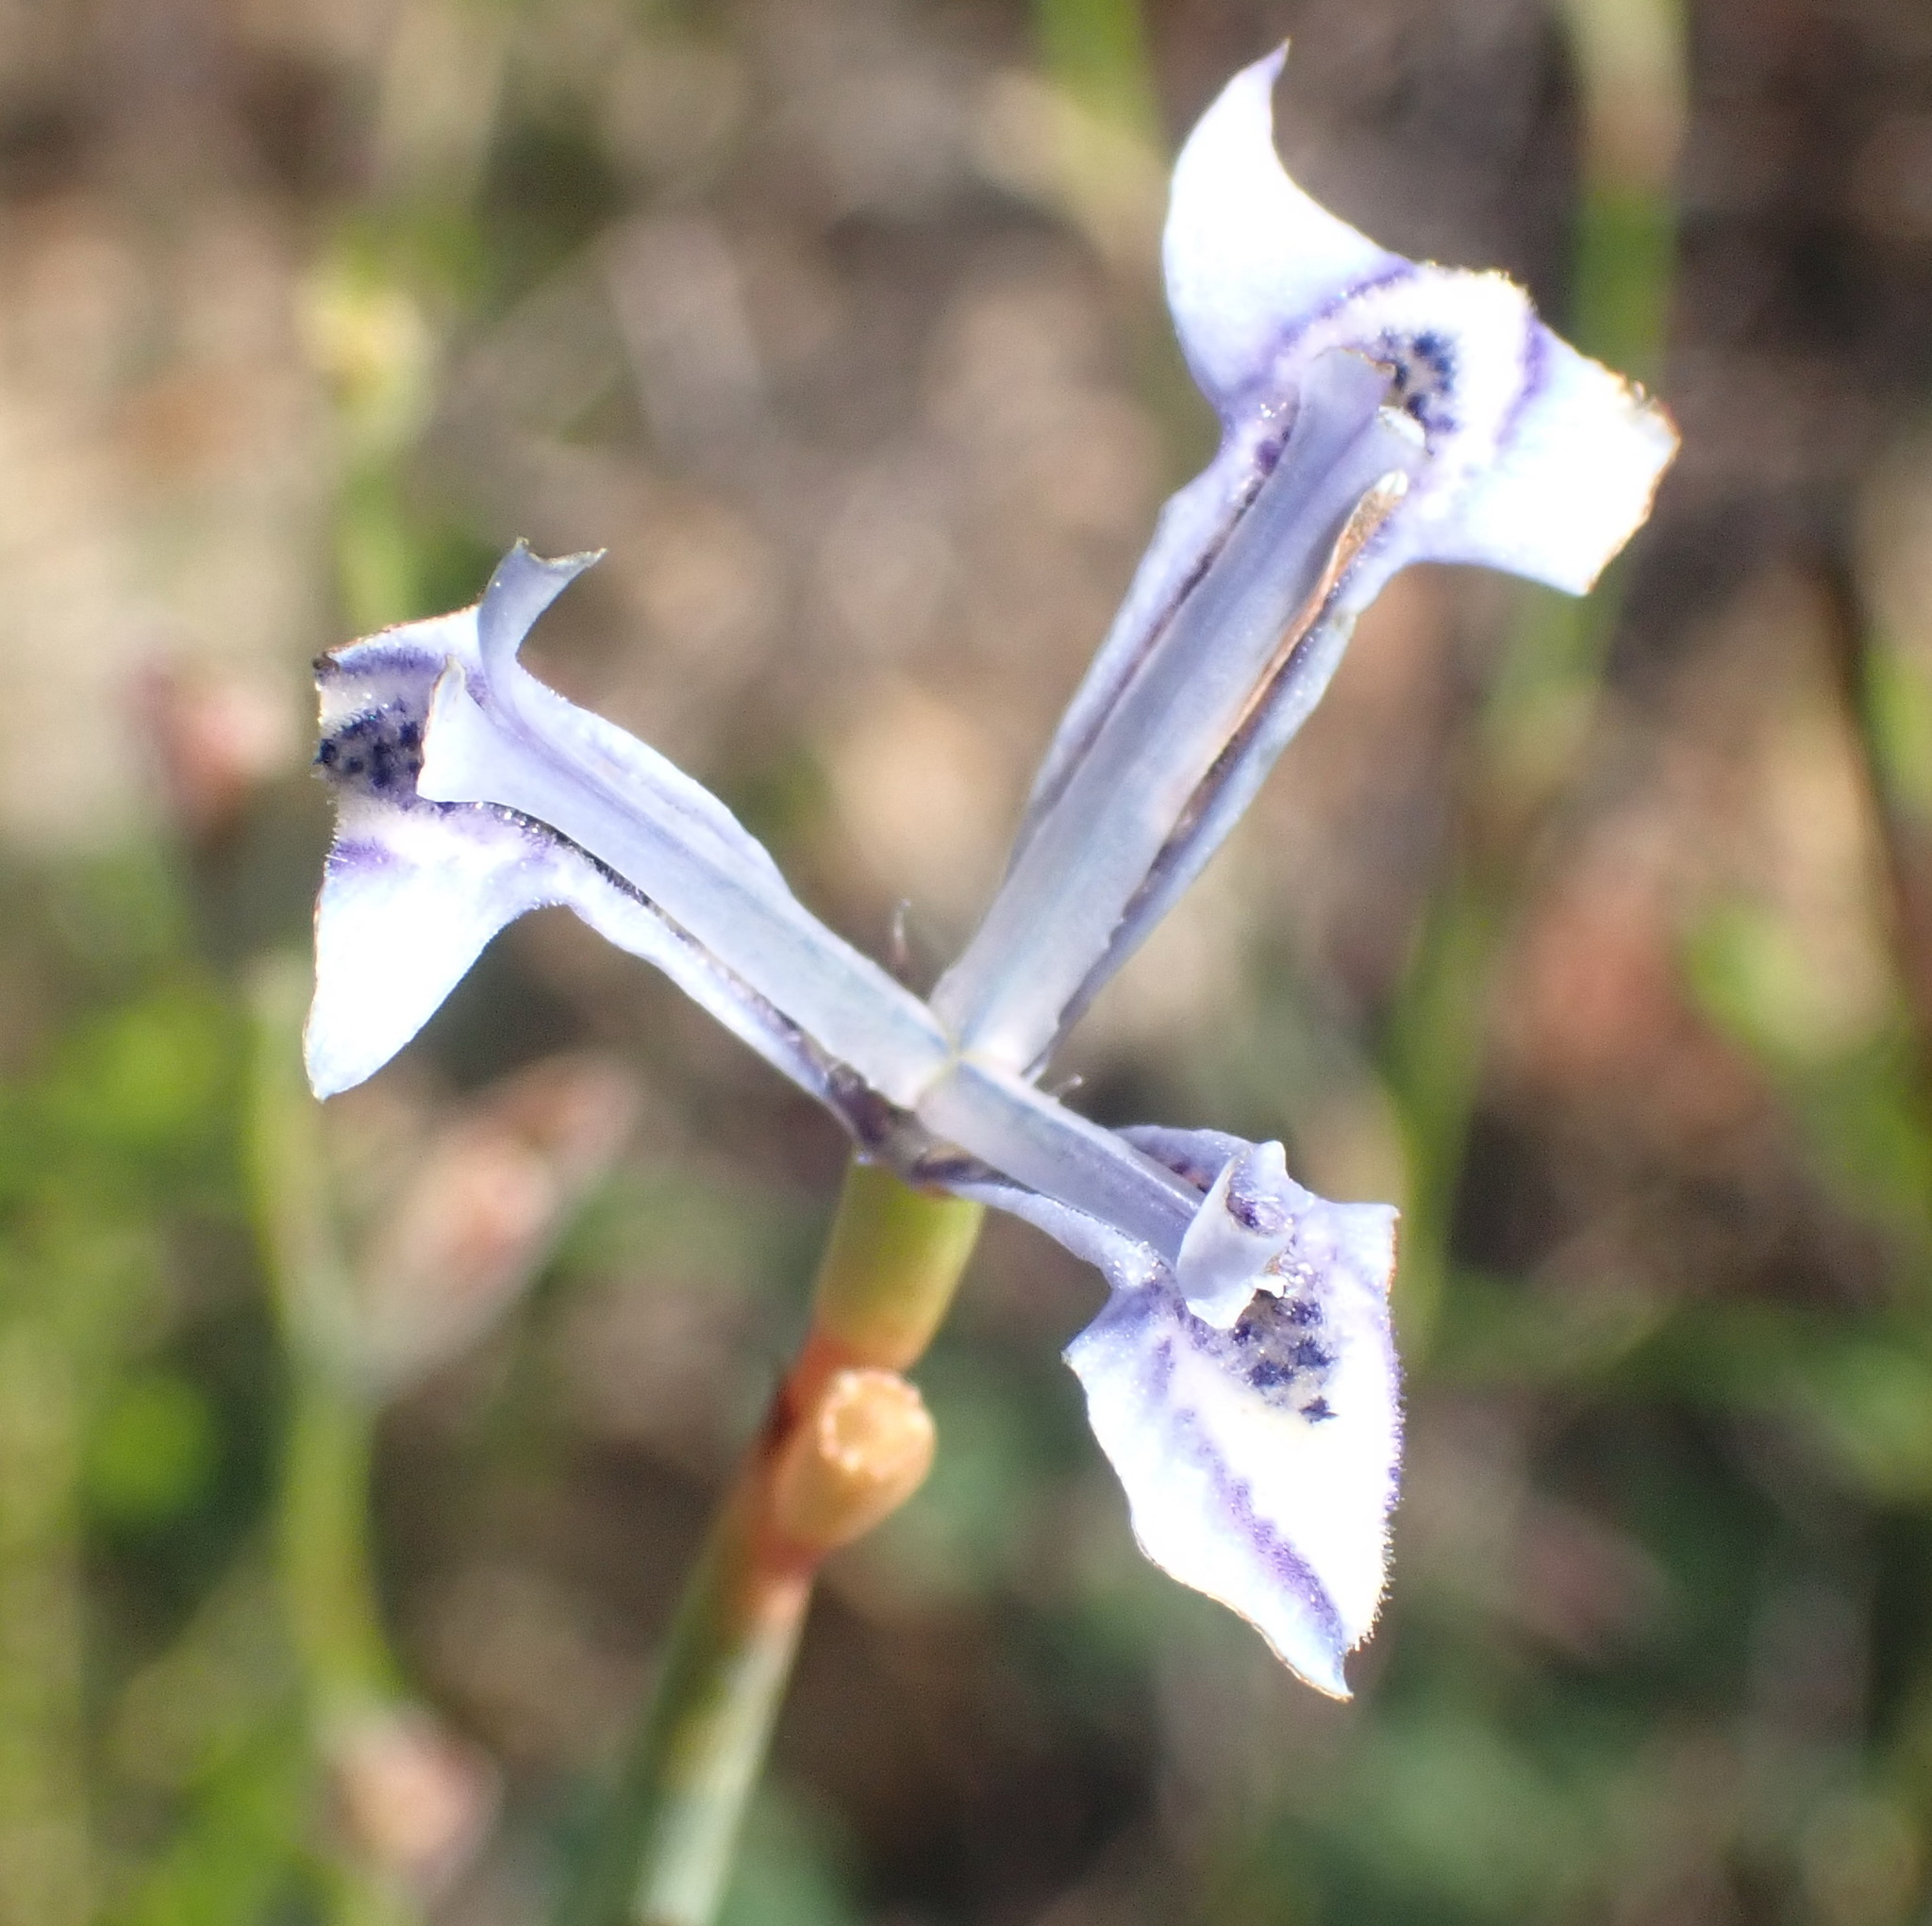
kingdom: Plantae
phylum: Tracheophyta
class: Liliopsida
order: Asparagales
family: Iridaceae
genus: Moraea
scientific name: Moraea tripetala
